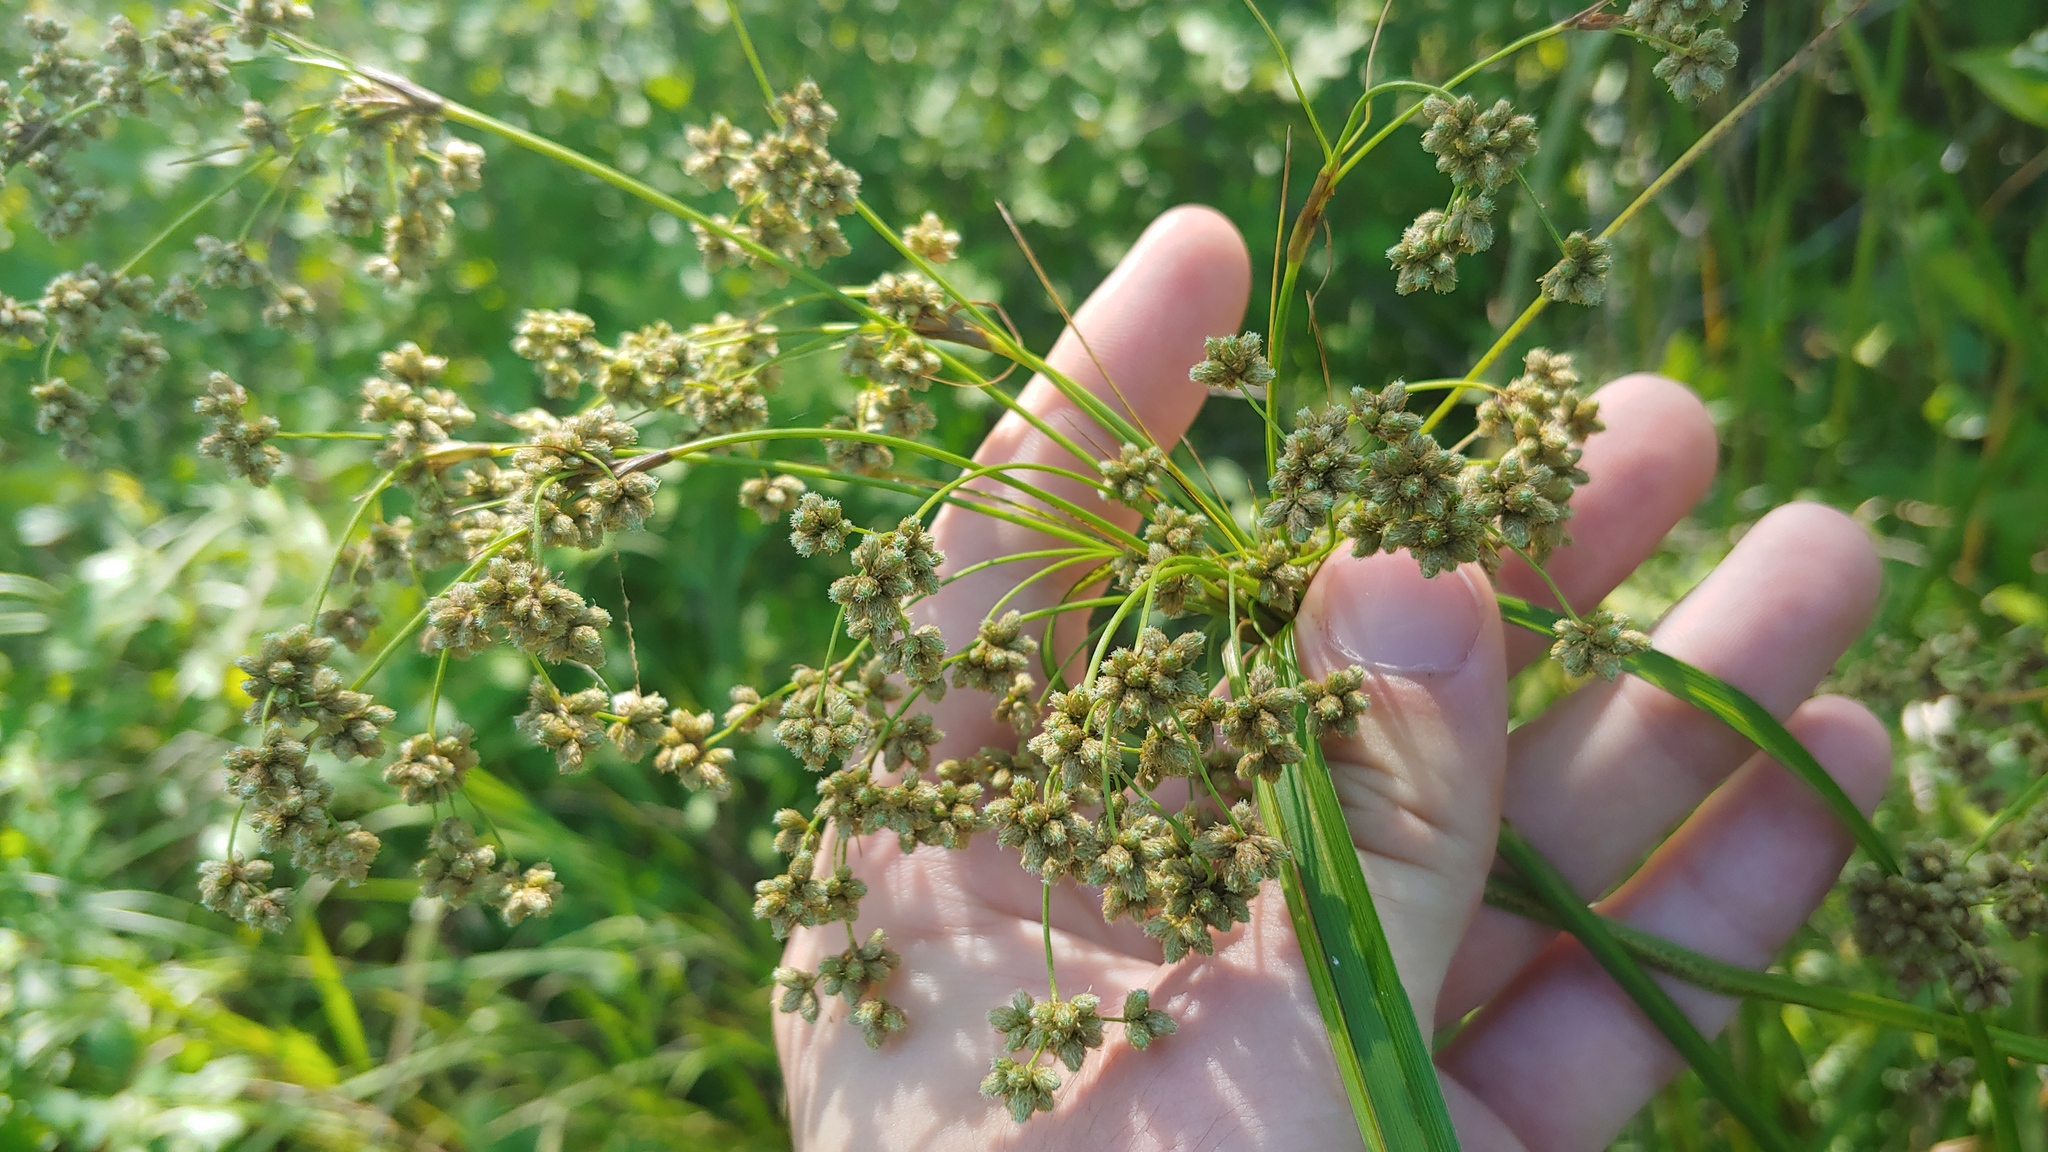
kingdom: Plantae
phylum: Tracheophyta
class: Liliopsida
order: Poales
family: Cyperaceae
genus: Scirpus
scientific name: Scirpus cyperinus
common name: Black-sheathed bulrush
